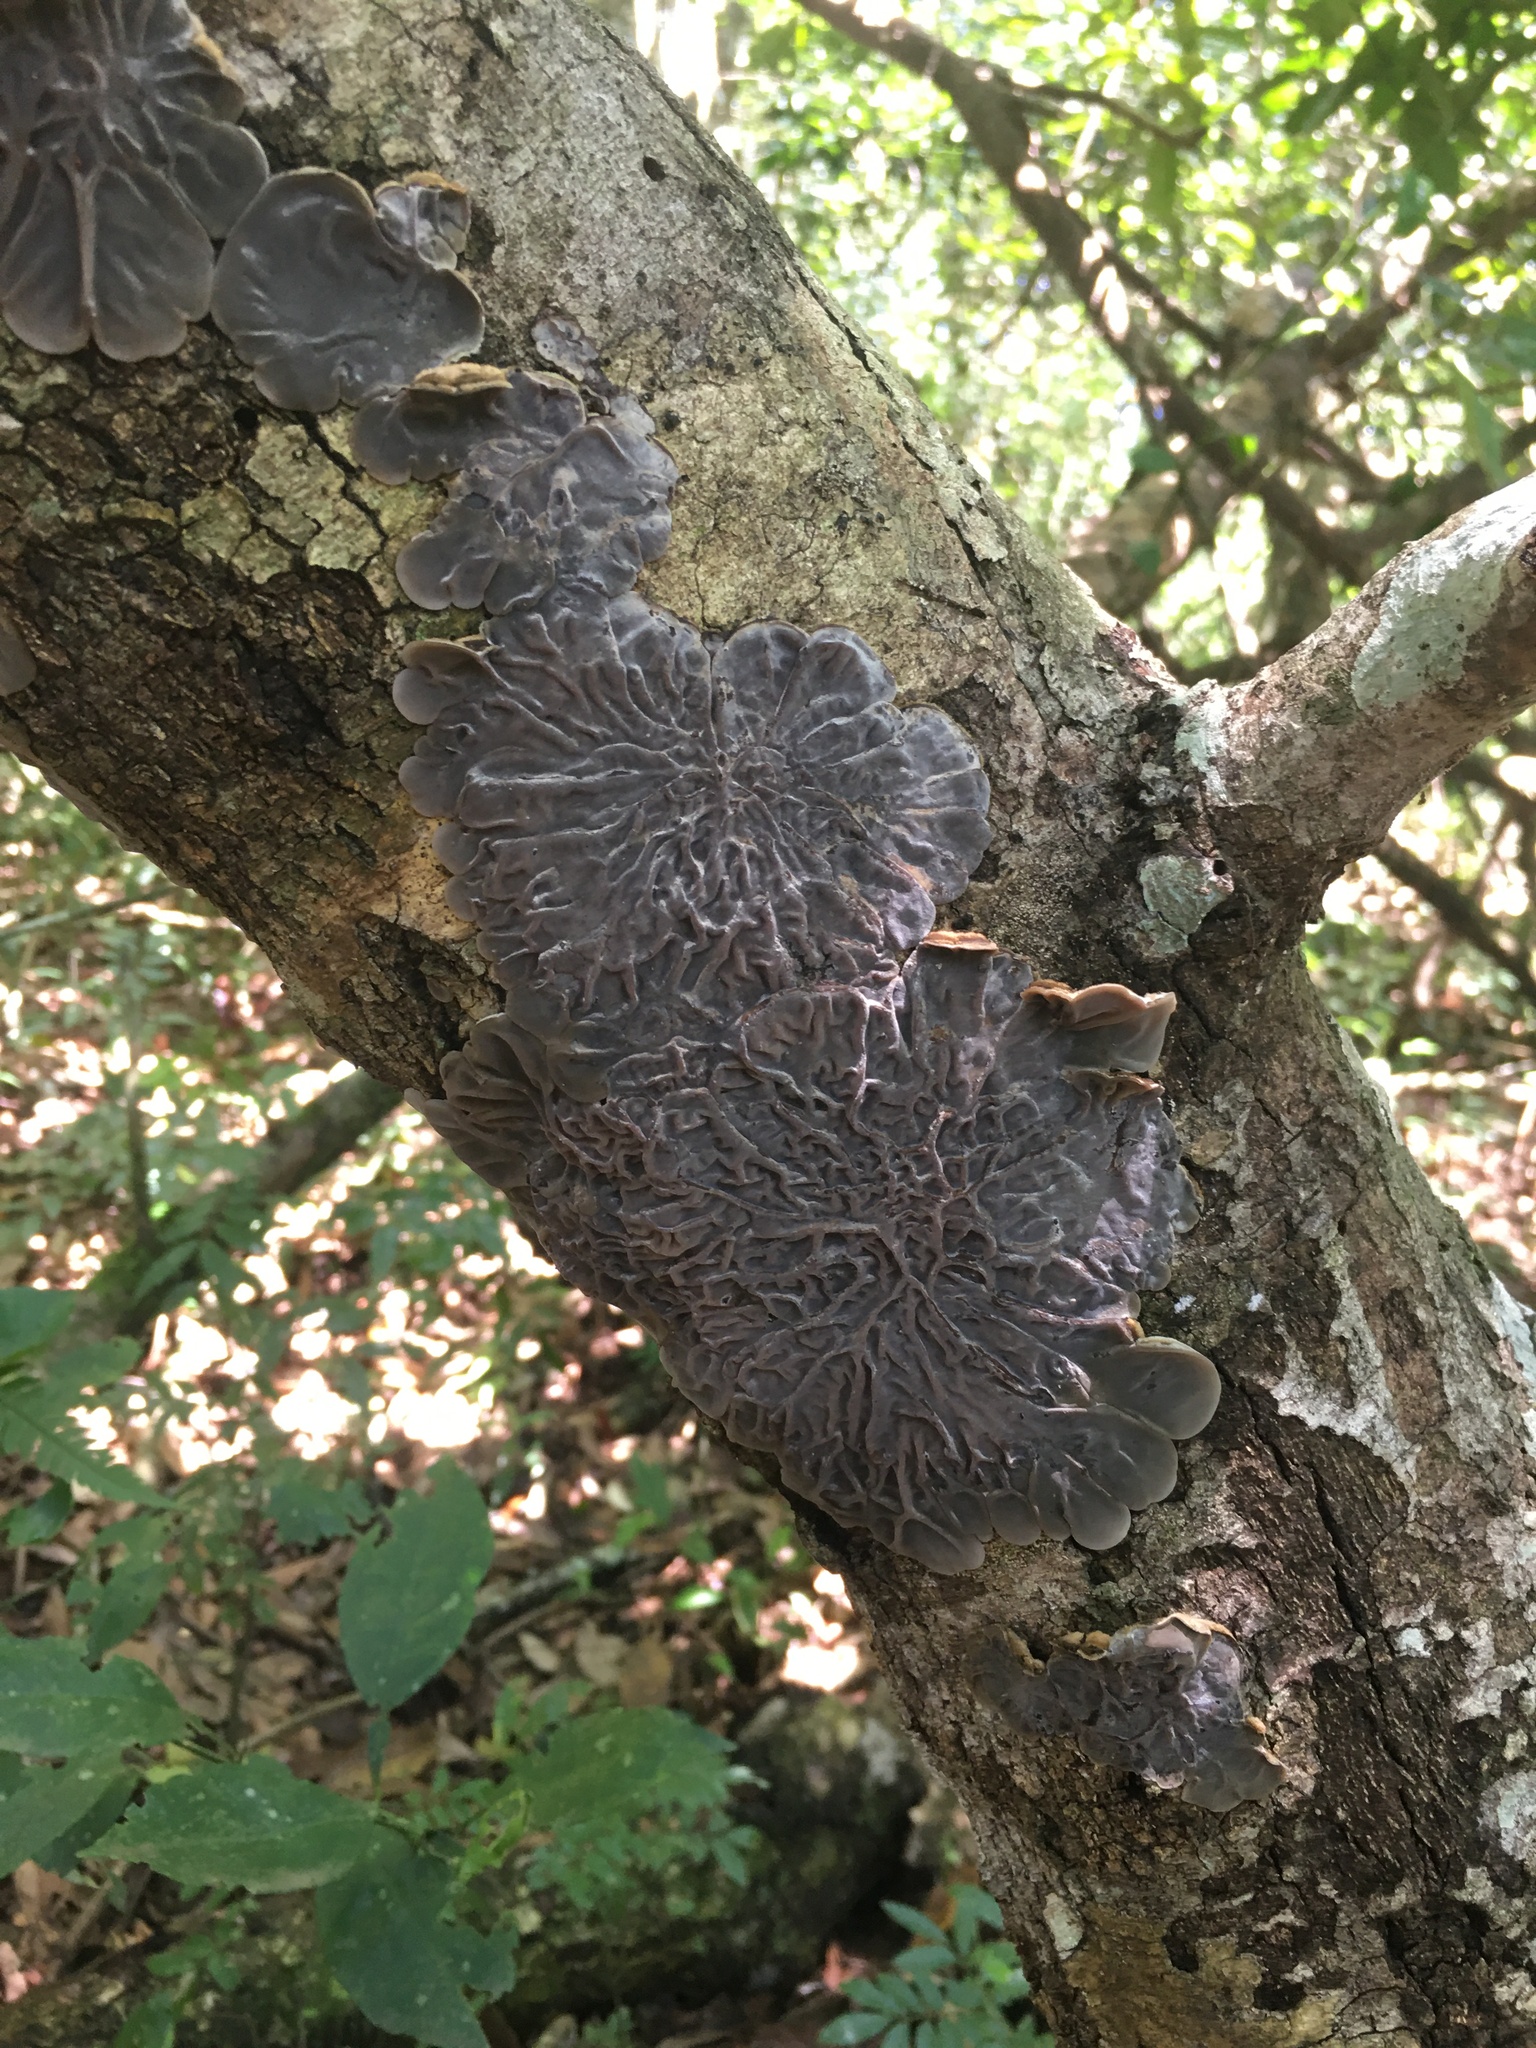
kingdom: Fungi
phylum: Basidiomycota
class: Agaricomycetes
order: Auriculariales
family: Auriculariaceae
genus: Auricularia
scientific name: Auricularia brasiliana
